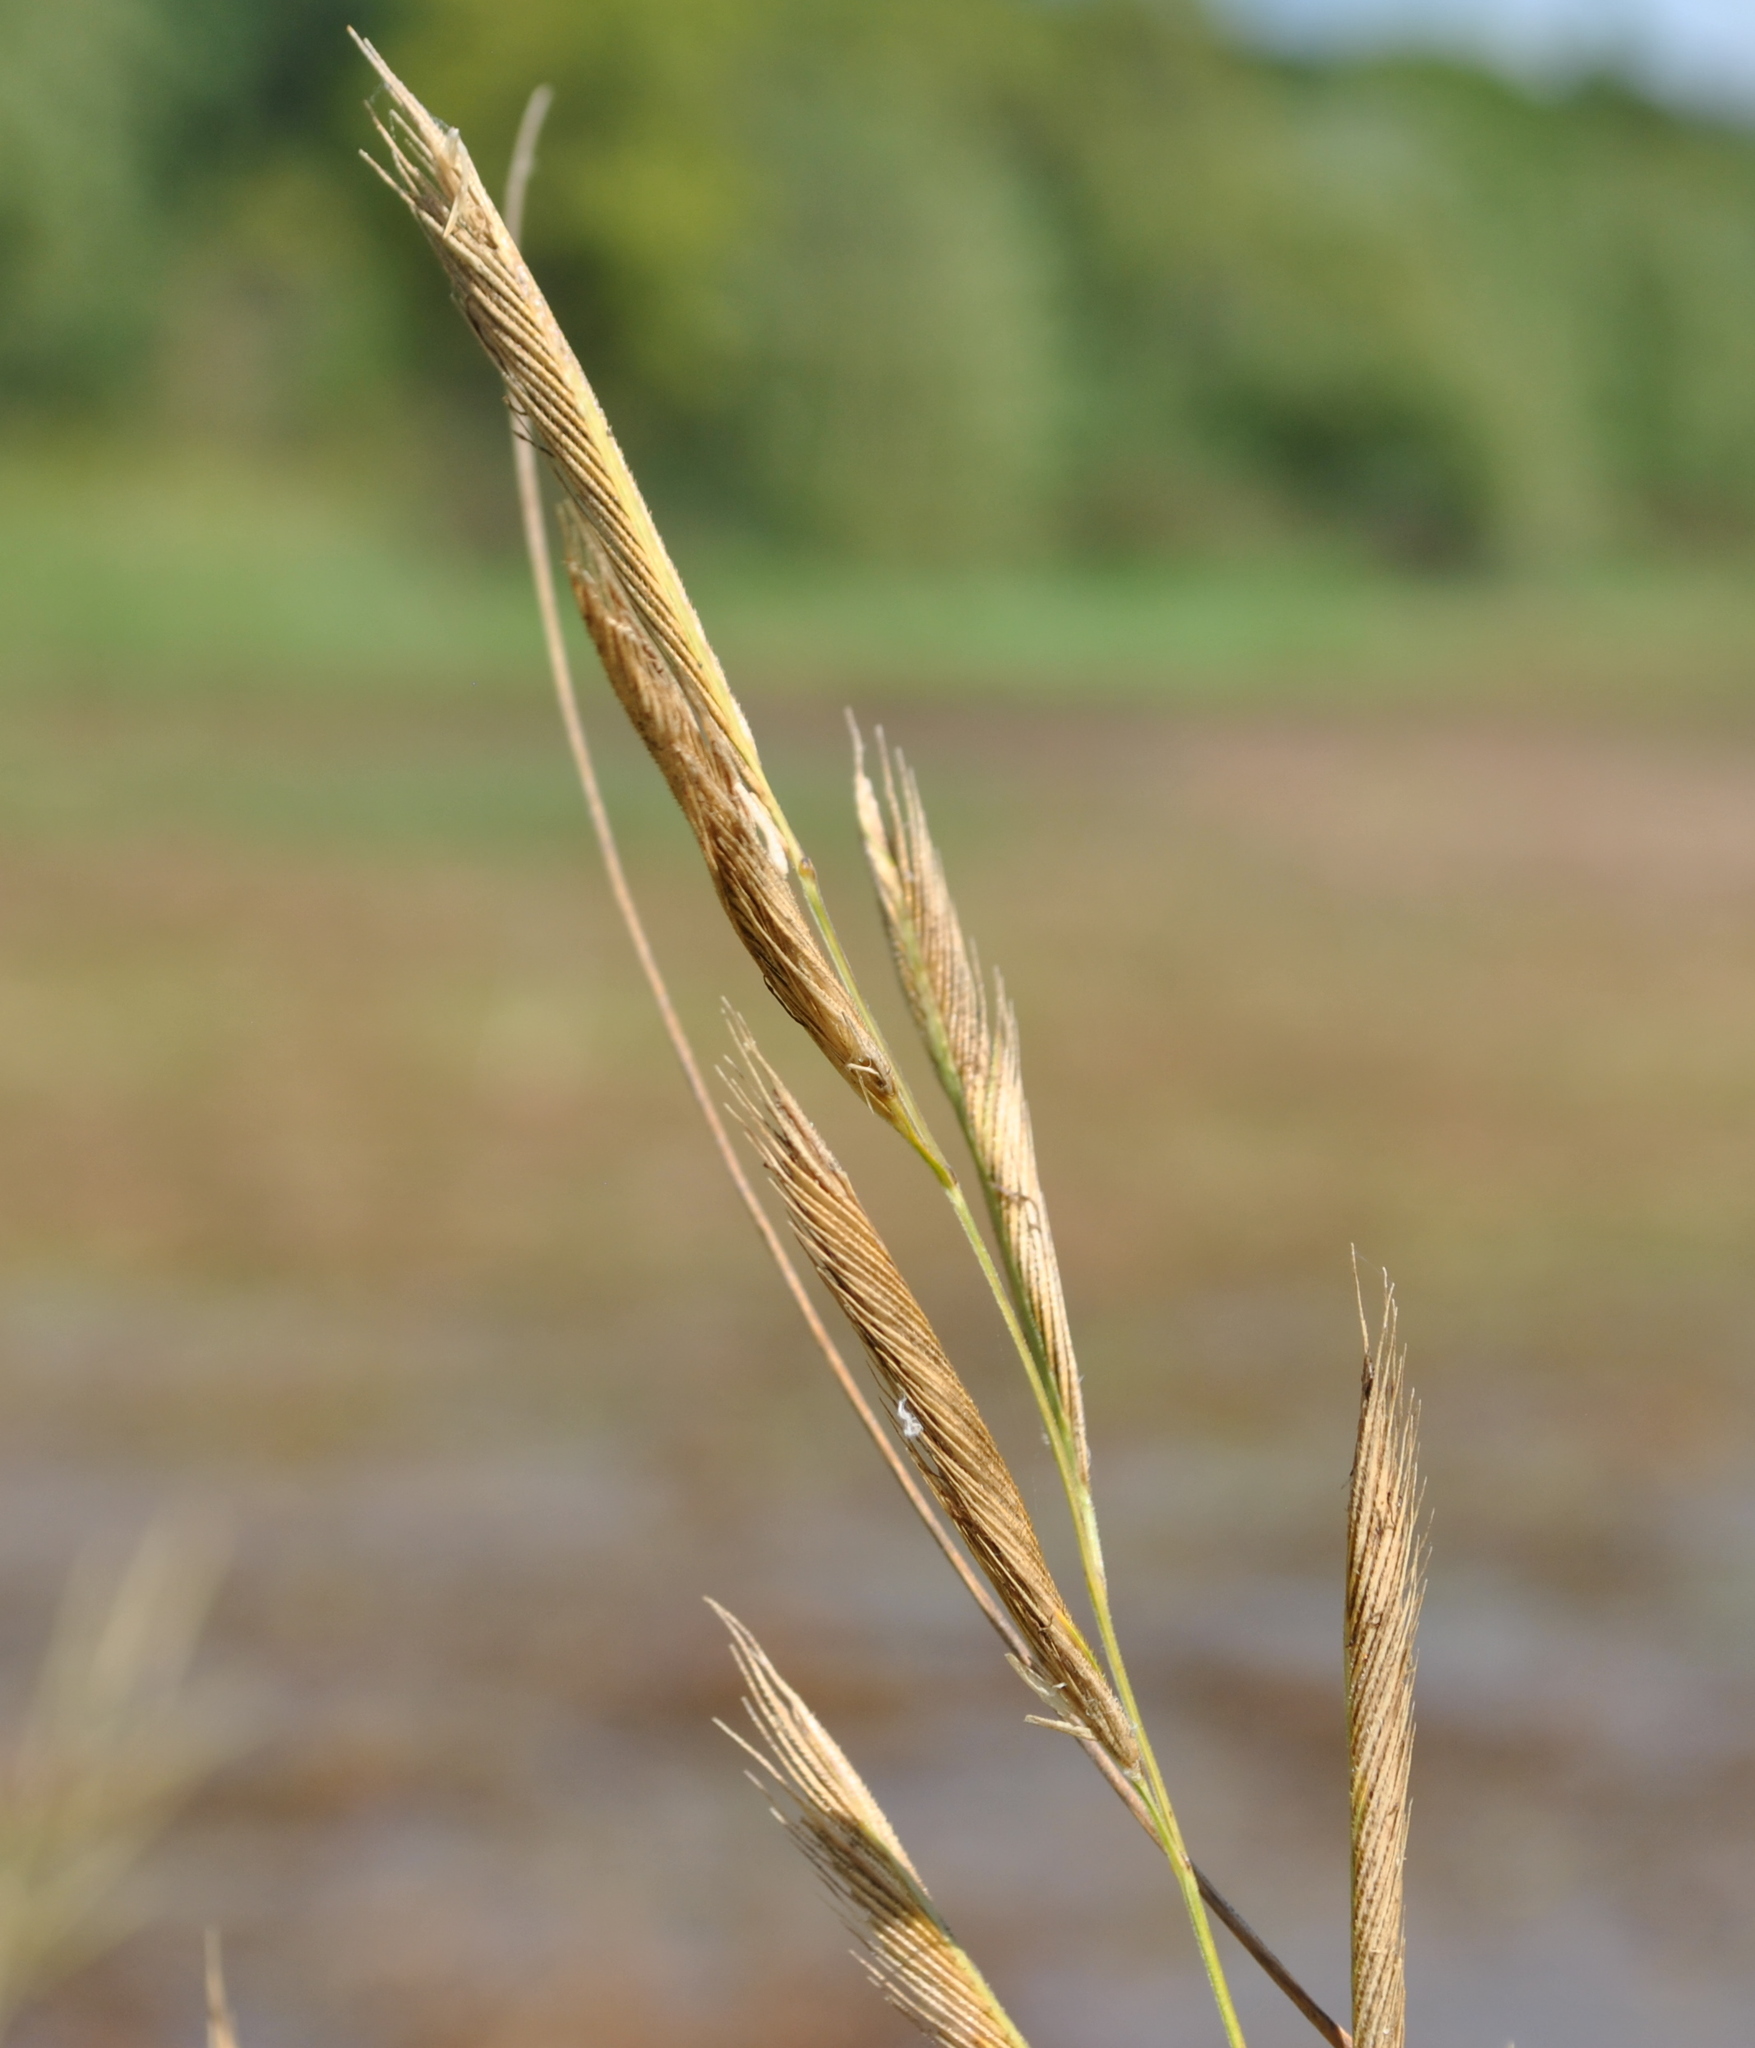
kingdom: Plantae
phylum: Tracheophyta
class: Liliopsida
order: Poales
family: Poaceae
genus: Sporobolus
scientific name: Sporobolus michauxianus
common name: Freshwater cordgrass
